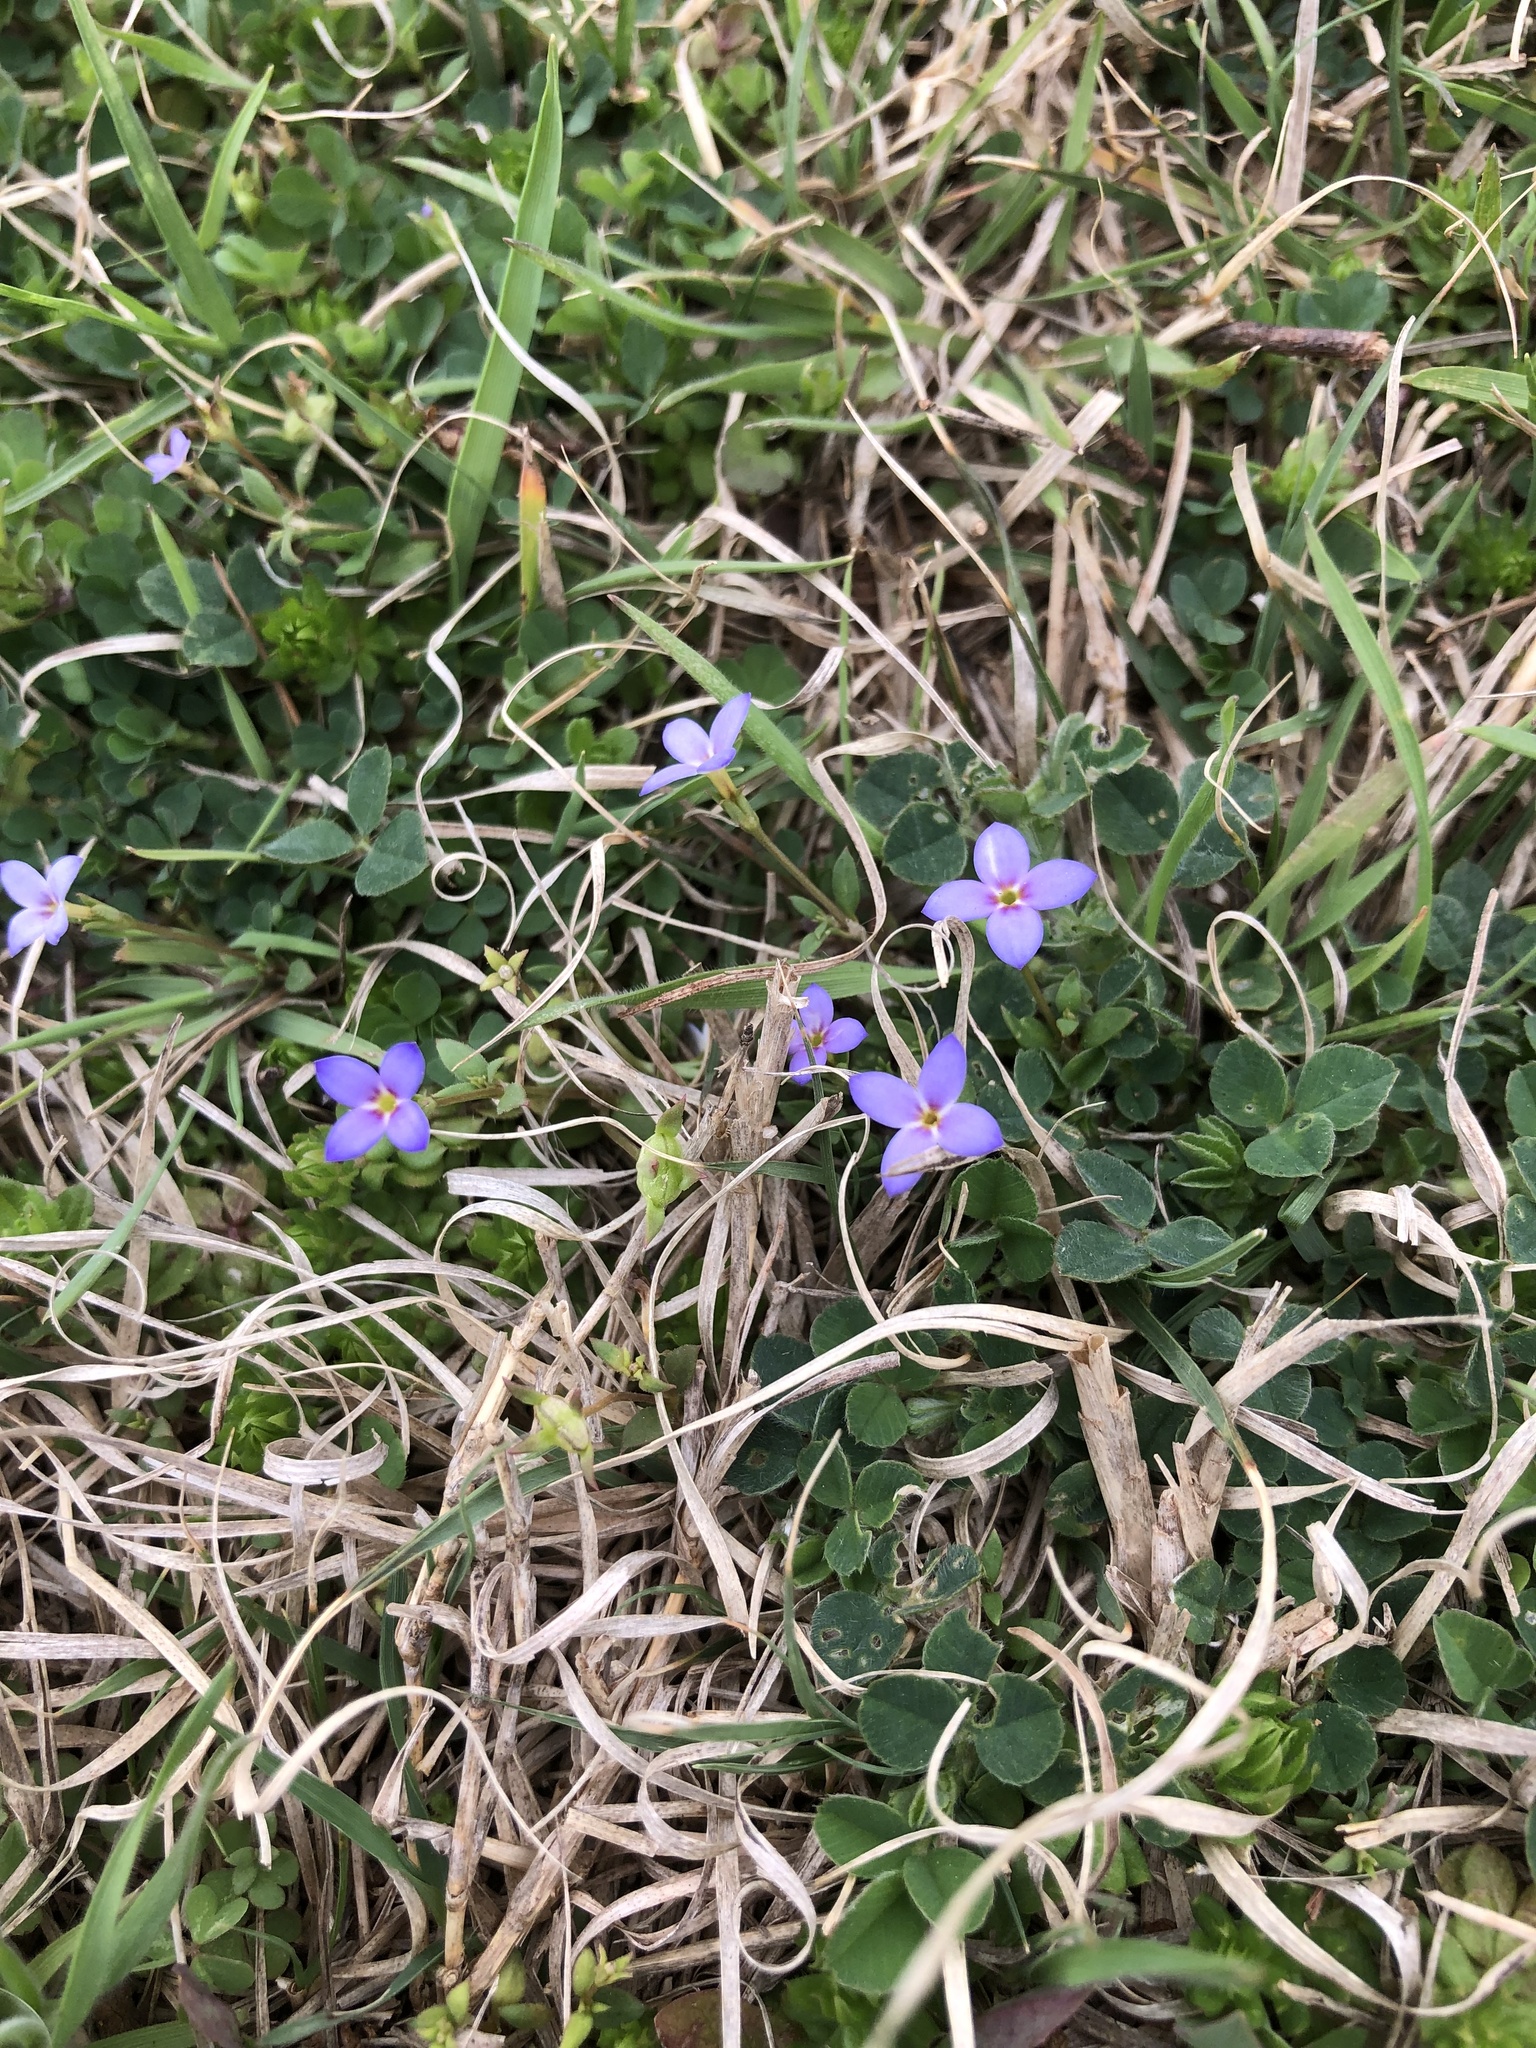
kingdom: Plantae
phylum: Tracheophyta
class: Magnoliopsida
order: Gentianales
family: Rubiaceae
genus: Houstonia
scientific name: Houstonia pusilla
